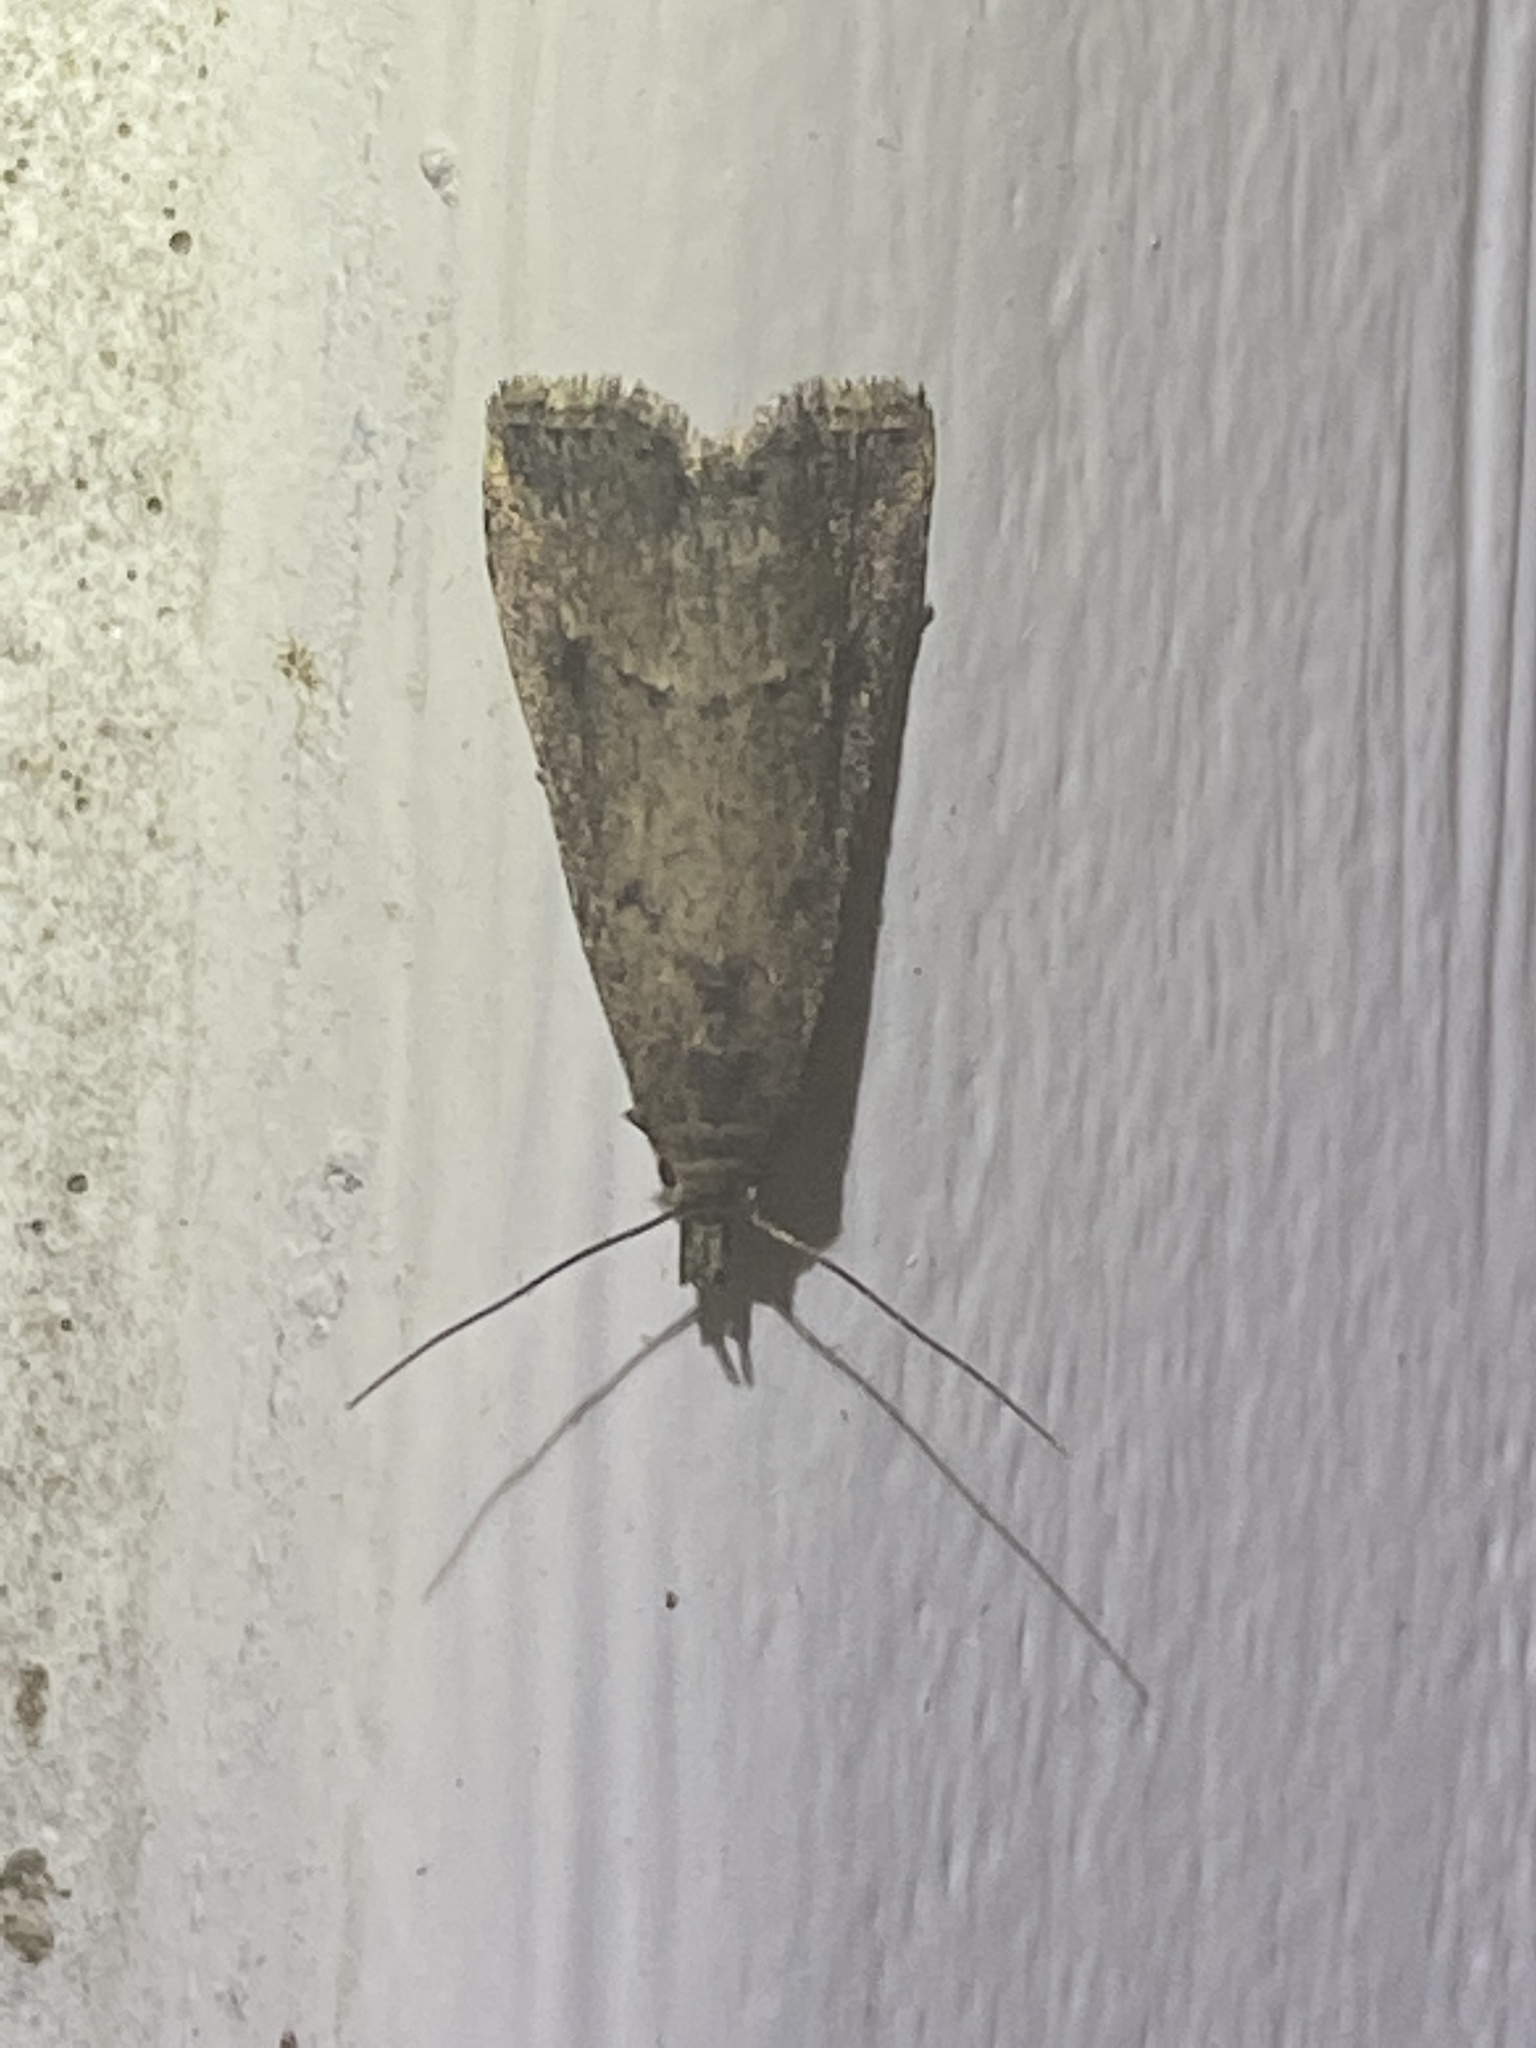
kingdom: Animalia
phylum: Arthropoda
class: Insecta
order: Lepidoptera
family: Erebidae
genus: Schrankia
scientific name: Schrankia
